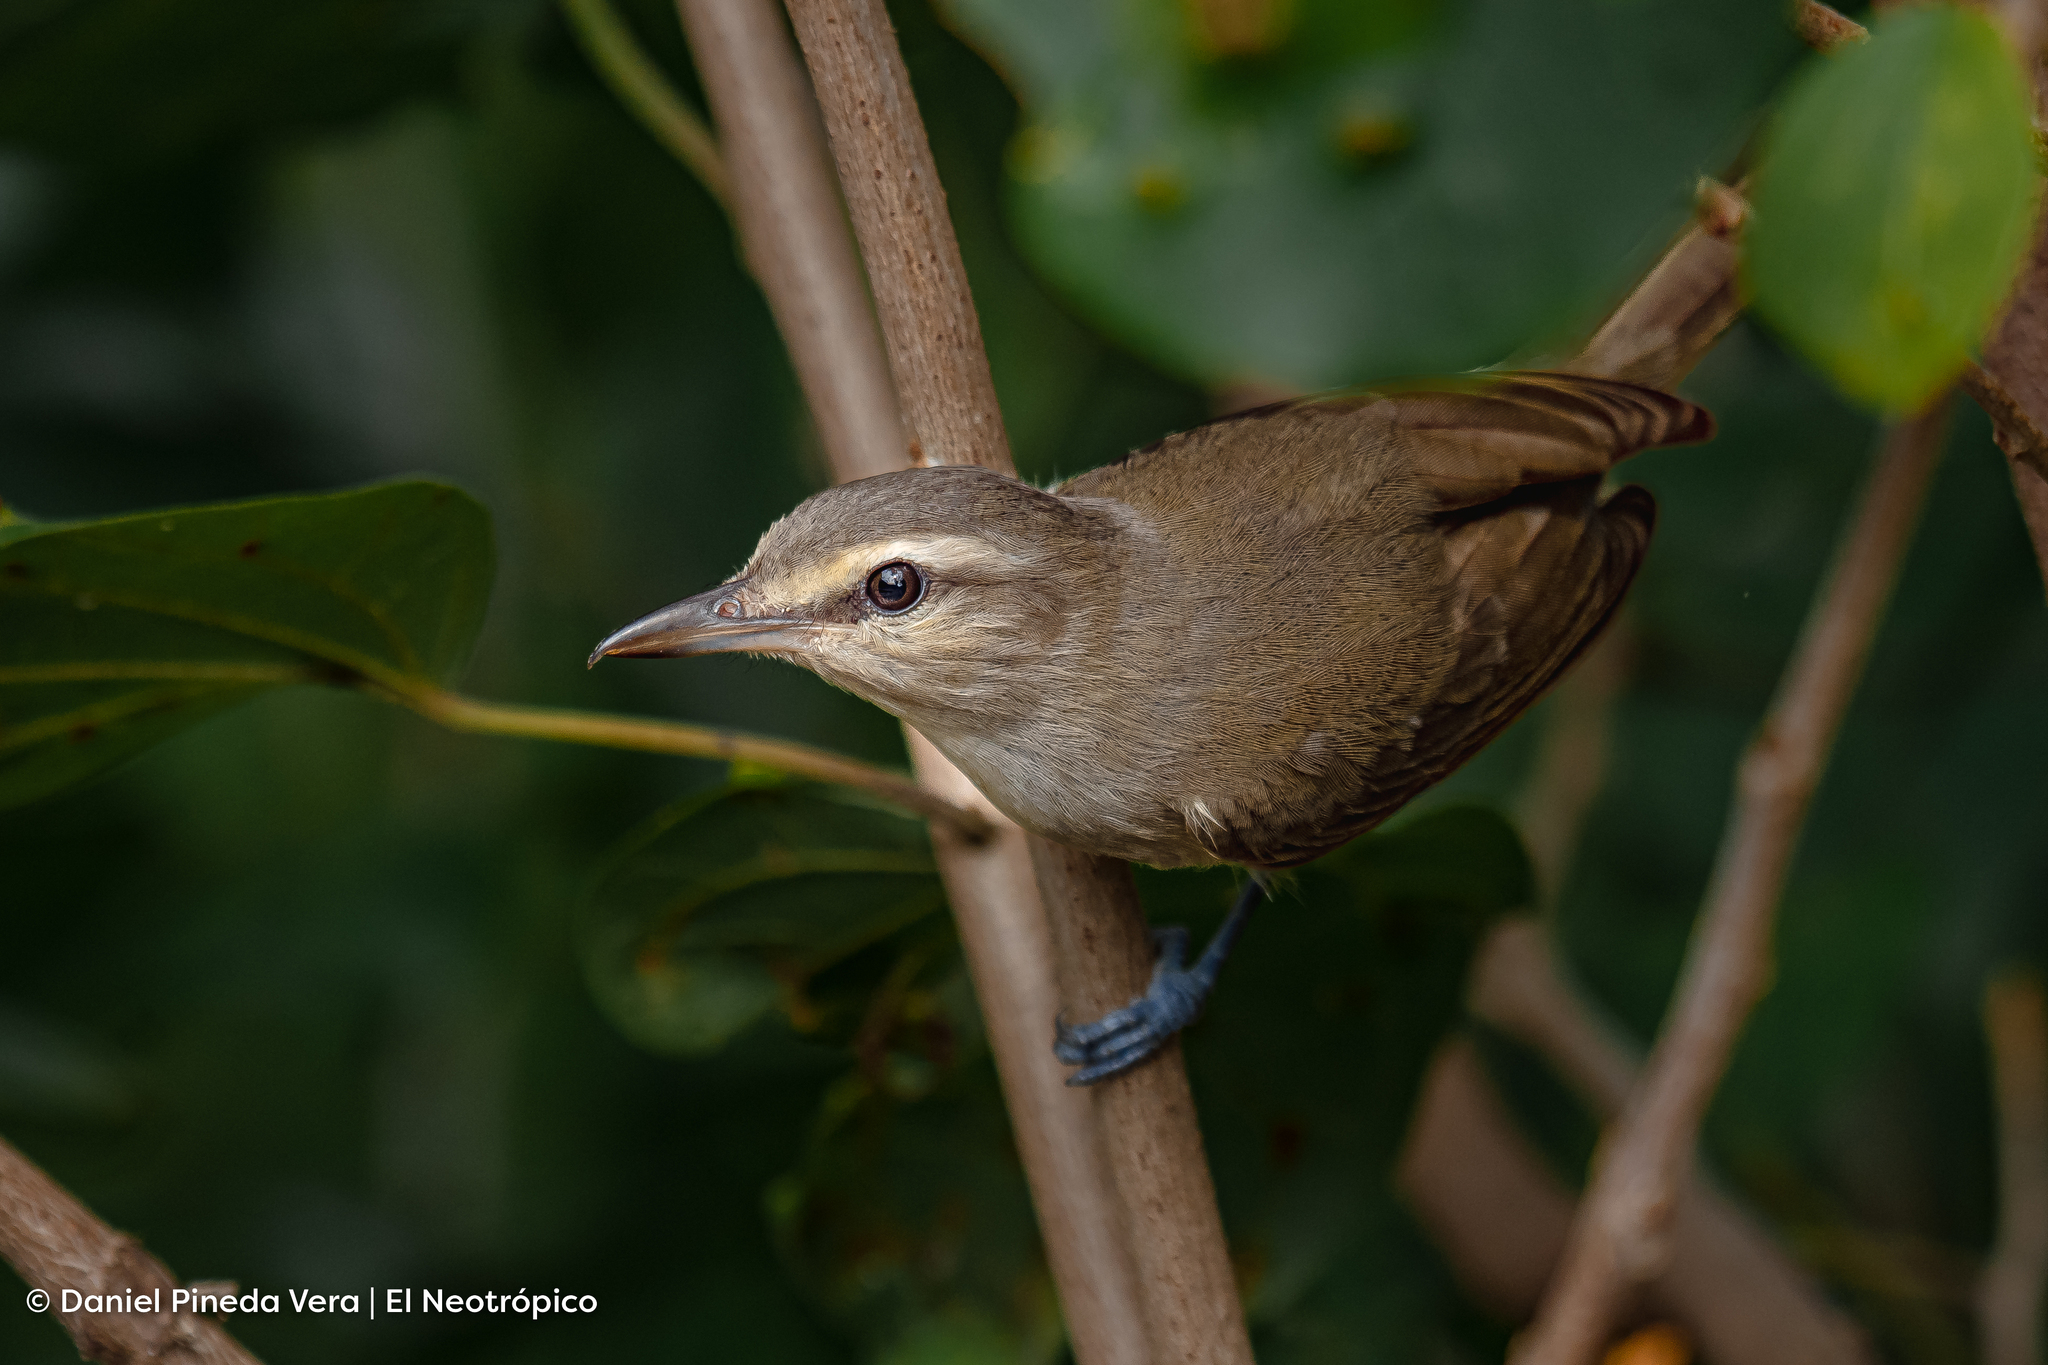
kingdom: Animalia
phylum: Chordata
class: Aves
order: Passeriformes
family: Vireonidae
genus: Vireo
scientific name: Vireo magister
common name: Yucatan vireo
